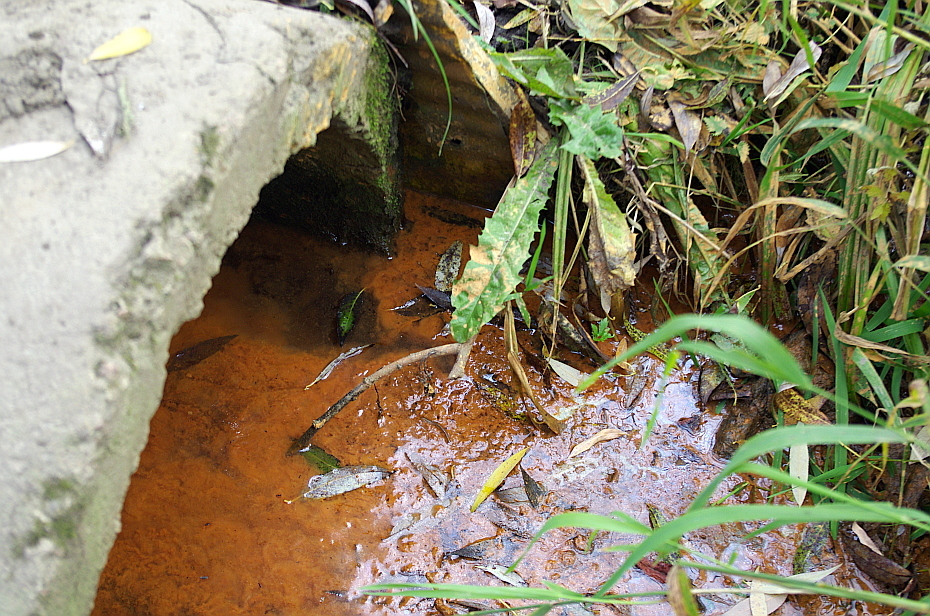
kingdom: Bacteria
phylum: Proteobacteria
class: Gammaproteobacteria
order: Burkholderiales
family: Burkholderiaceae
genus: Leptothrix
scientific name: Leptothrix
